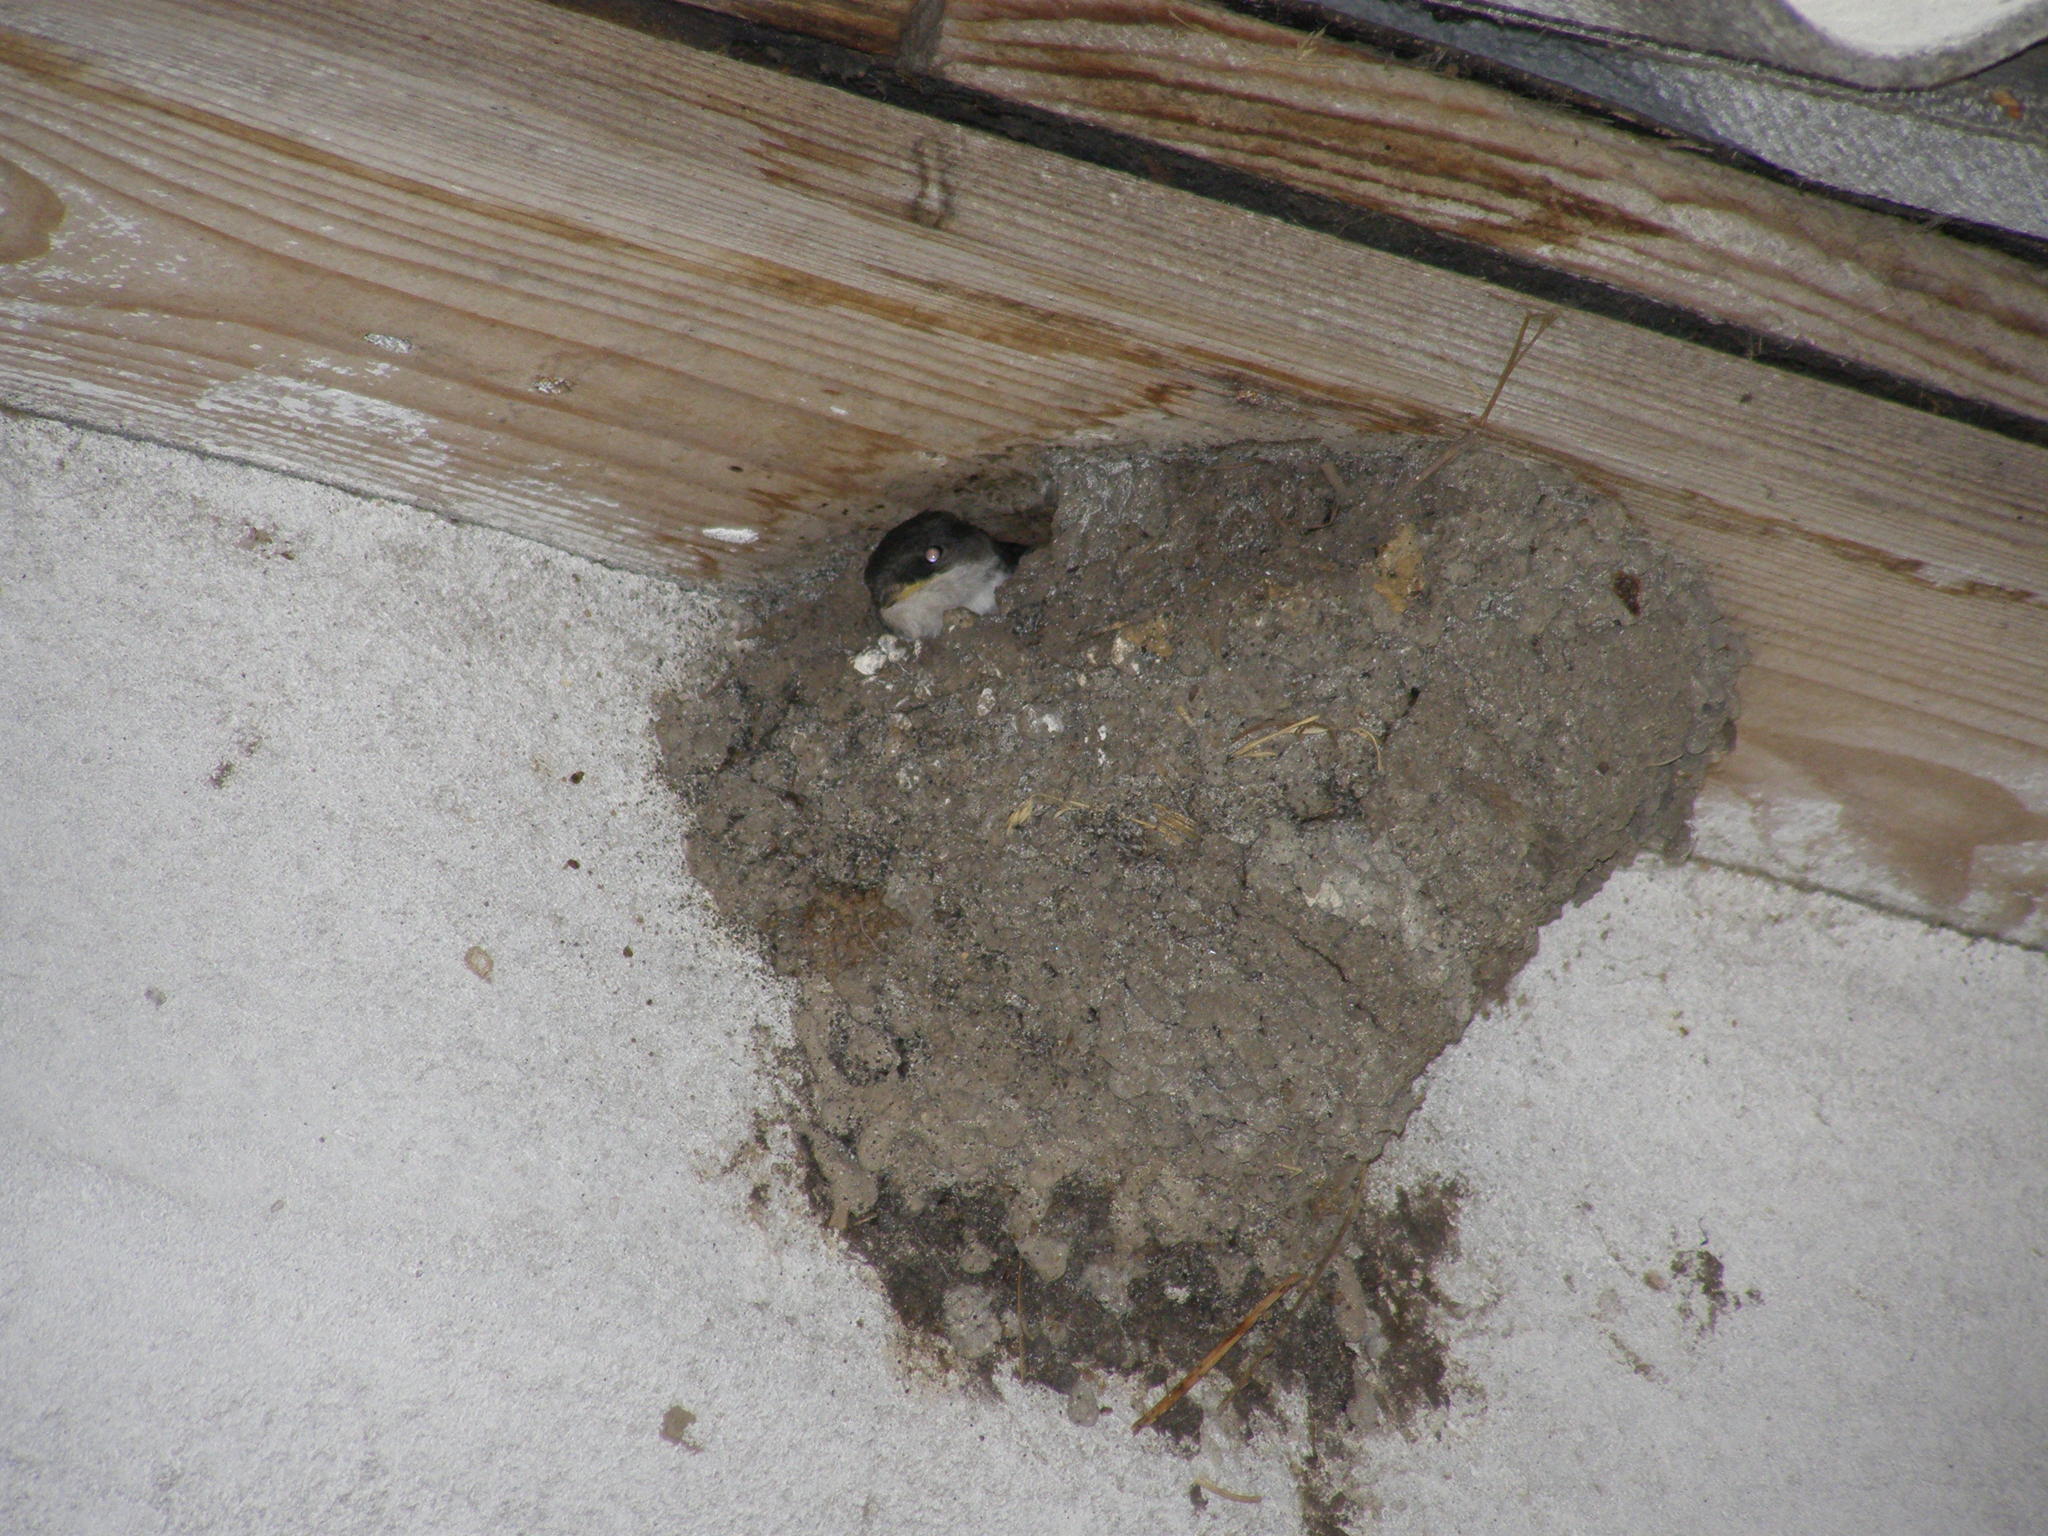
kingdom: Animalia
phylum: Chordata
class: Aves
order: Passeriformes
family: Hirundinidae
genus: Delichon
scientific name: Delichon urbicum
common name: Common house martin
